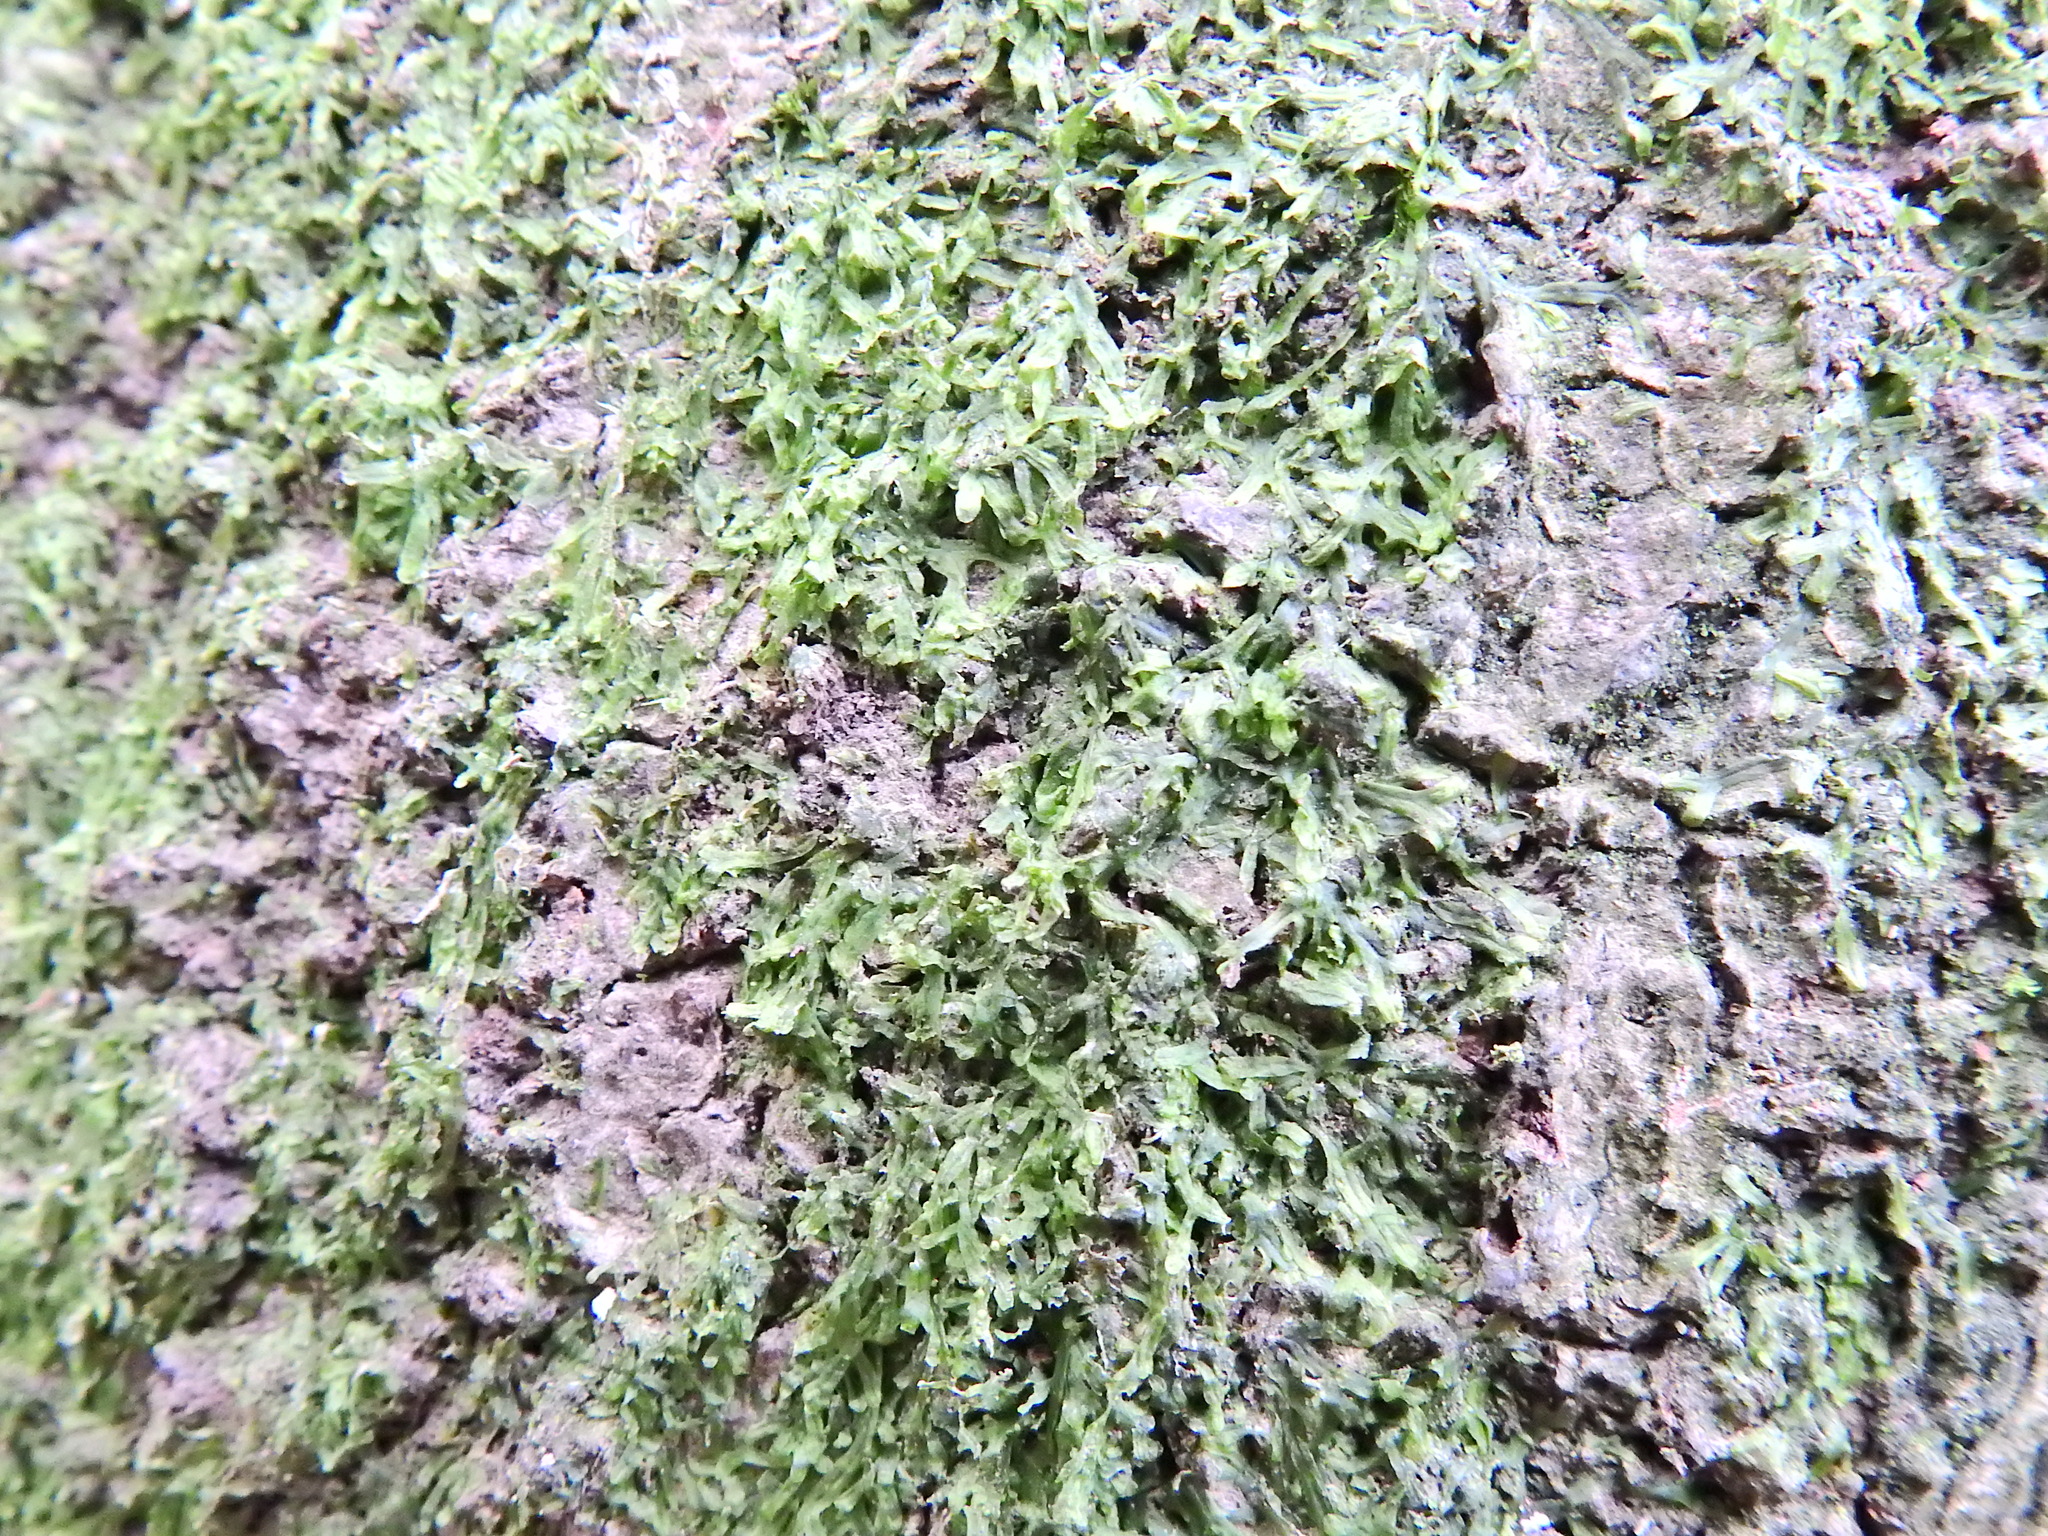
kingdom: Plantae
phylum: Marchantiophyta
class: Jungermanniopsida
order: Metzgeriales
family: Metzgeriaceae
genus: Metzgeria
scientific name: Metzgeria furcata
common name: Forked veilwort
